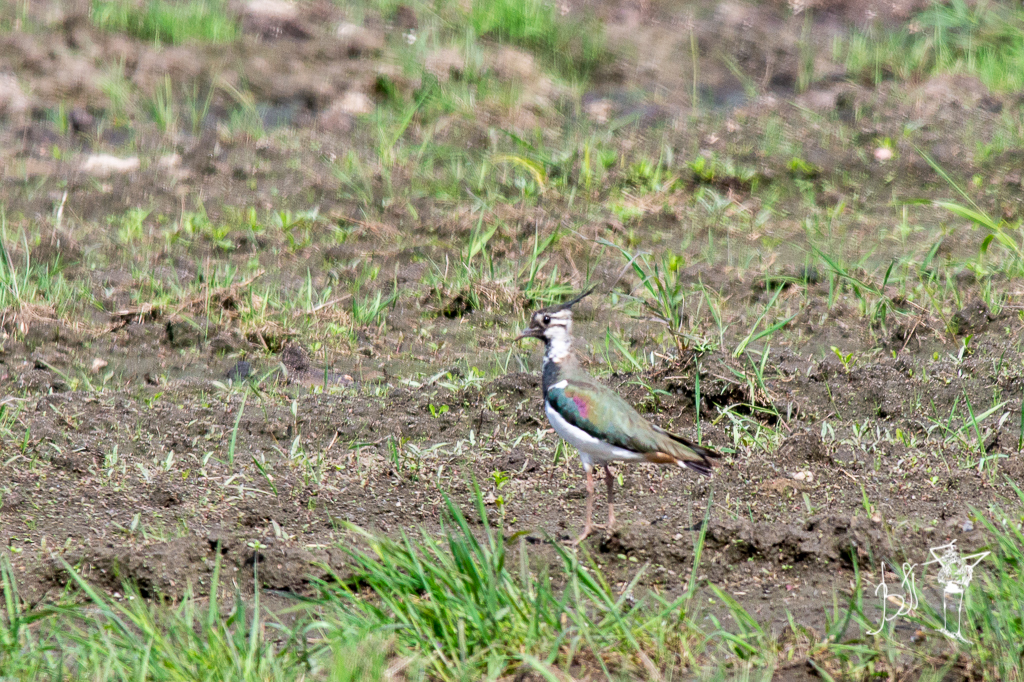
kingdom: Animalia
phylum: Chordata
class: Aves
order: Charadriiformes
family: Charadriidae
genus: Vanellus
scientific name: Vanellus vanellus
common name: Northern lapwing
